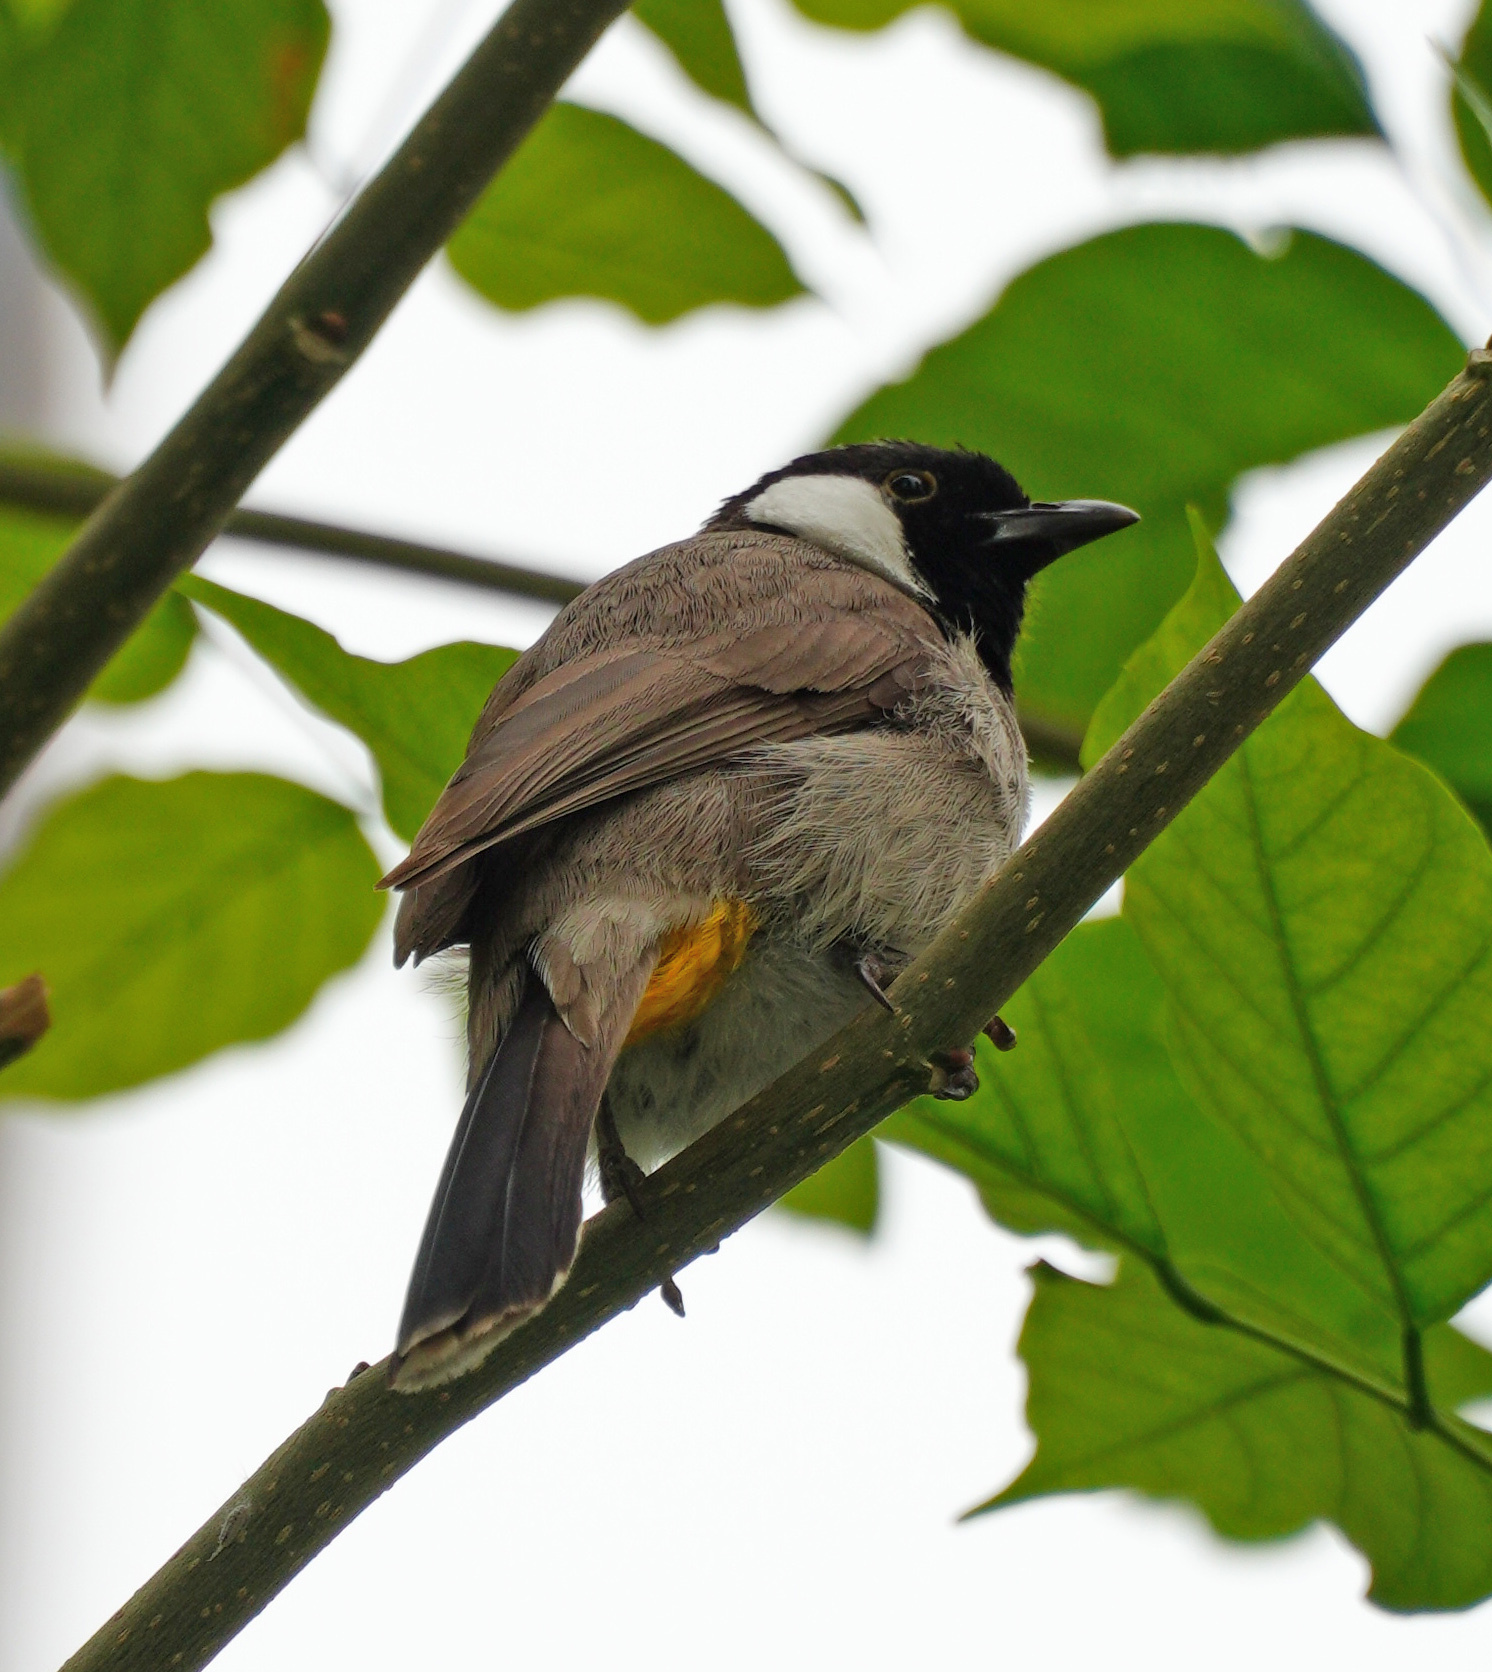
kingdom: Animalia
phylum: Chordata
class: Aves
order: Passeriformes
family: Pycnonotidae
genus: Pycnonotus
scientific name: Pycnonotus leucotis
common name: White-eared bulbul
